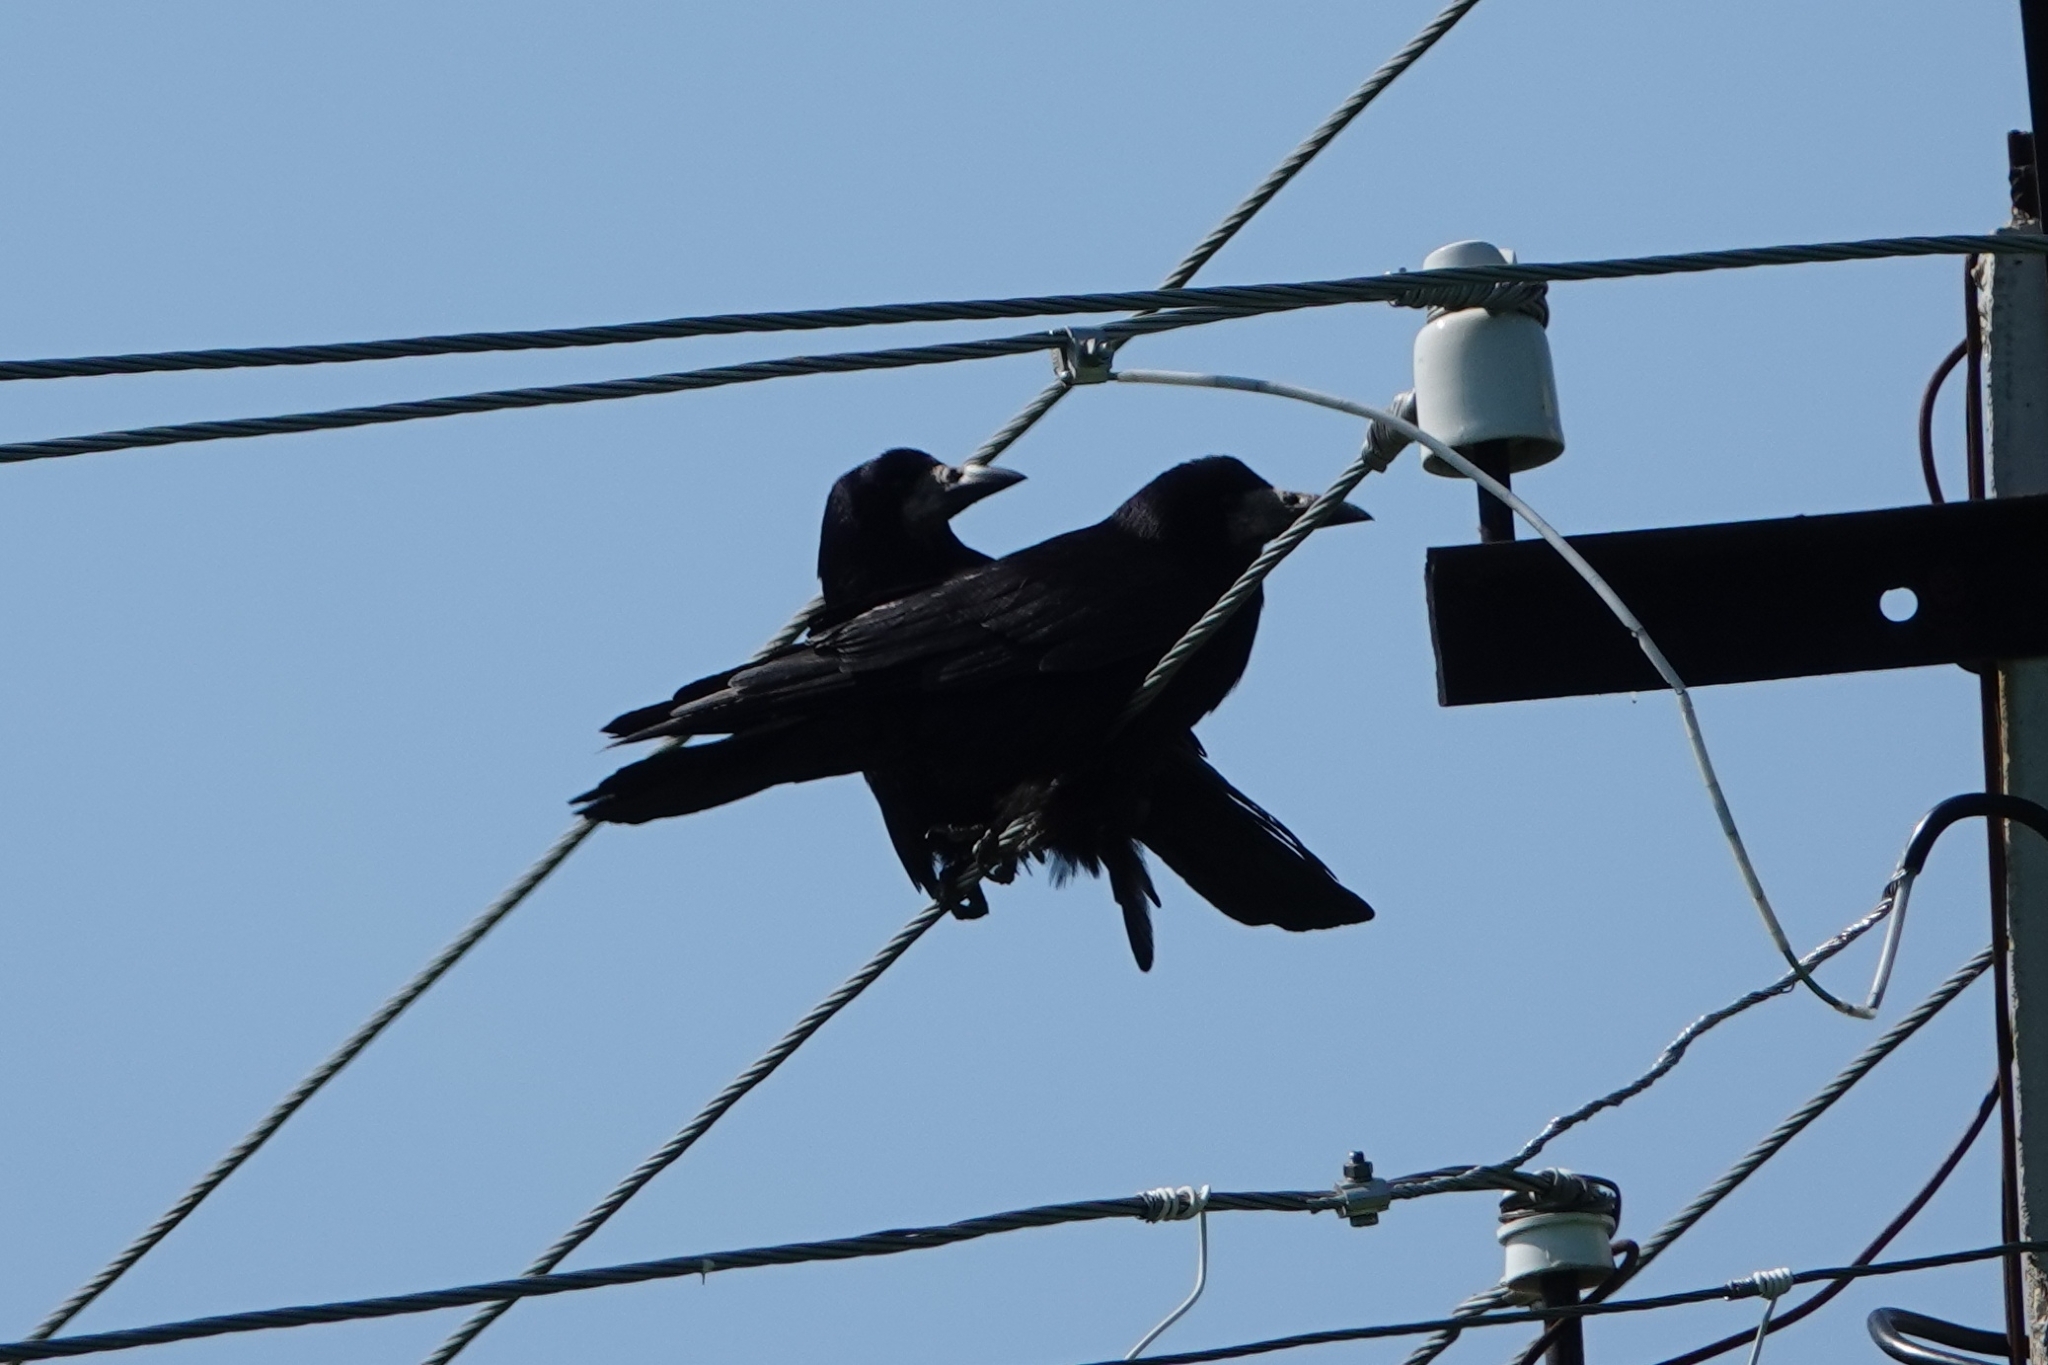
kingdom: Animalia
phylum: Chordata
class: Aves
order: Passeriformes
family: Corvidae
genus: Corvus
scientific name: Corvus frugilegus
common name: Rook
